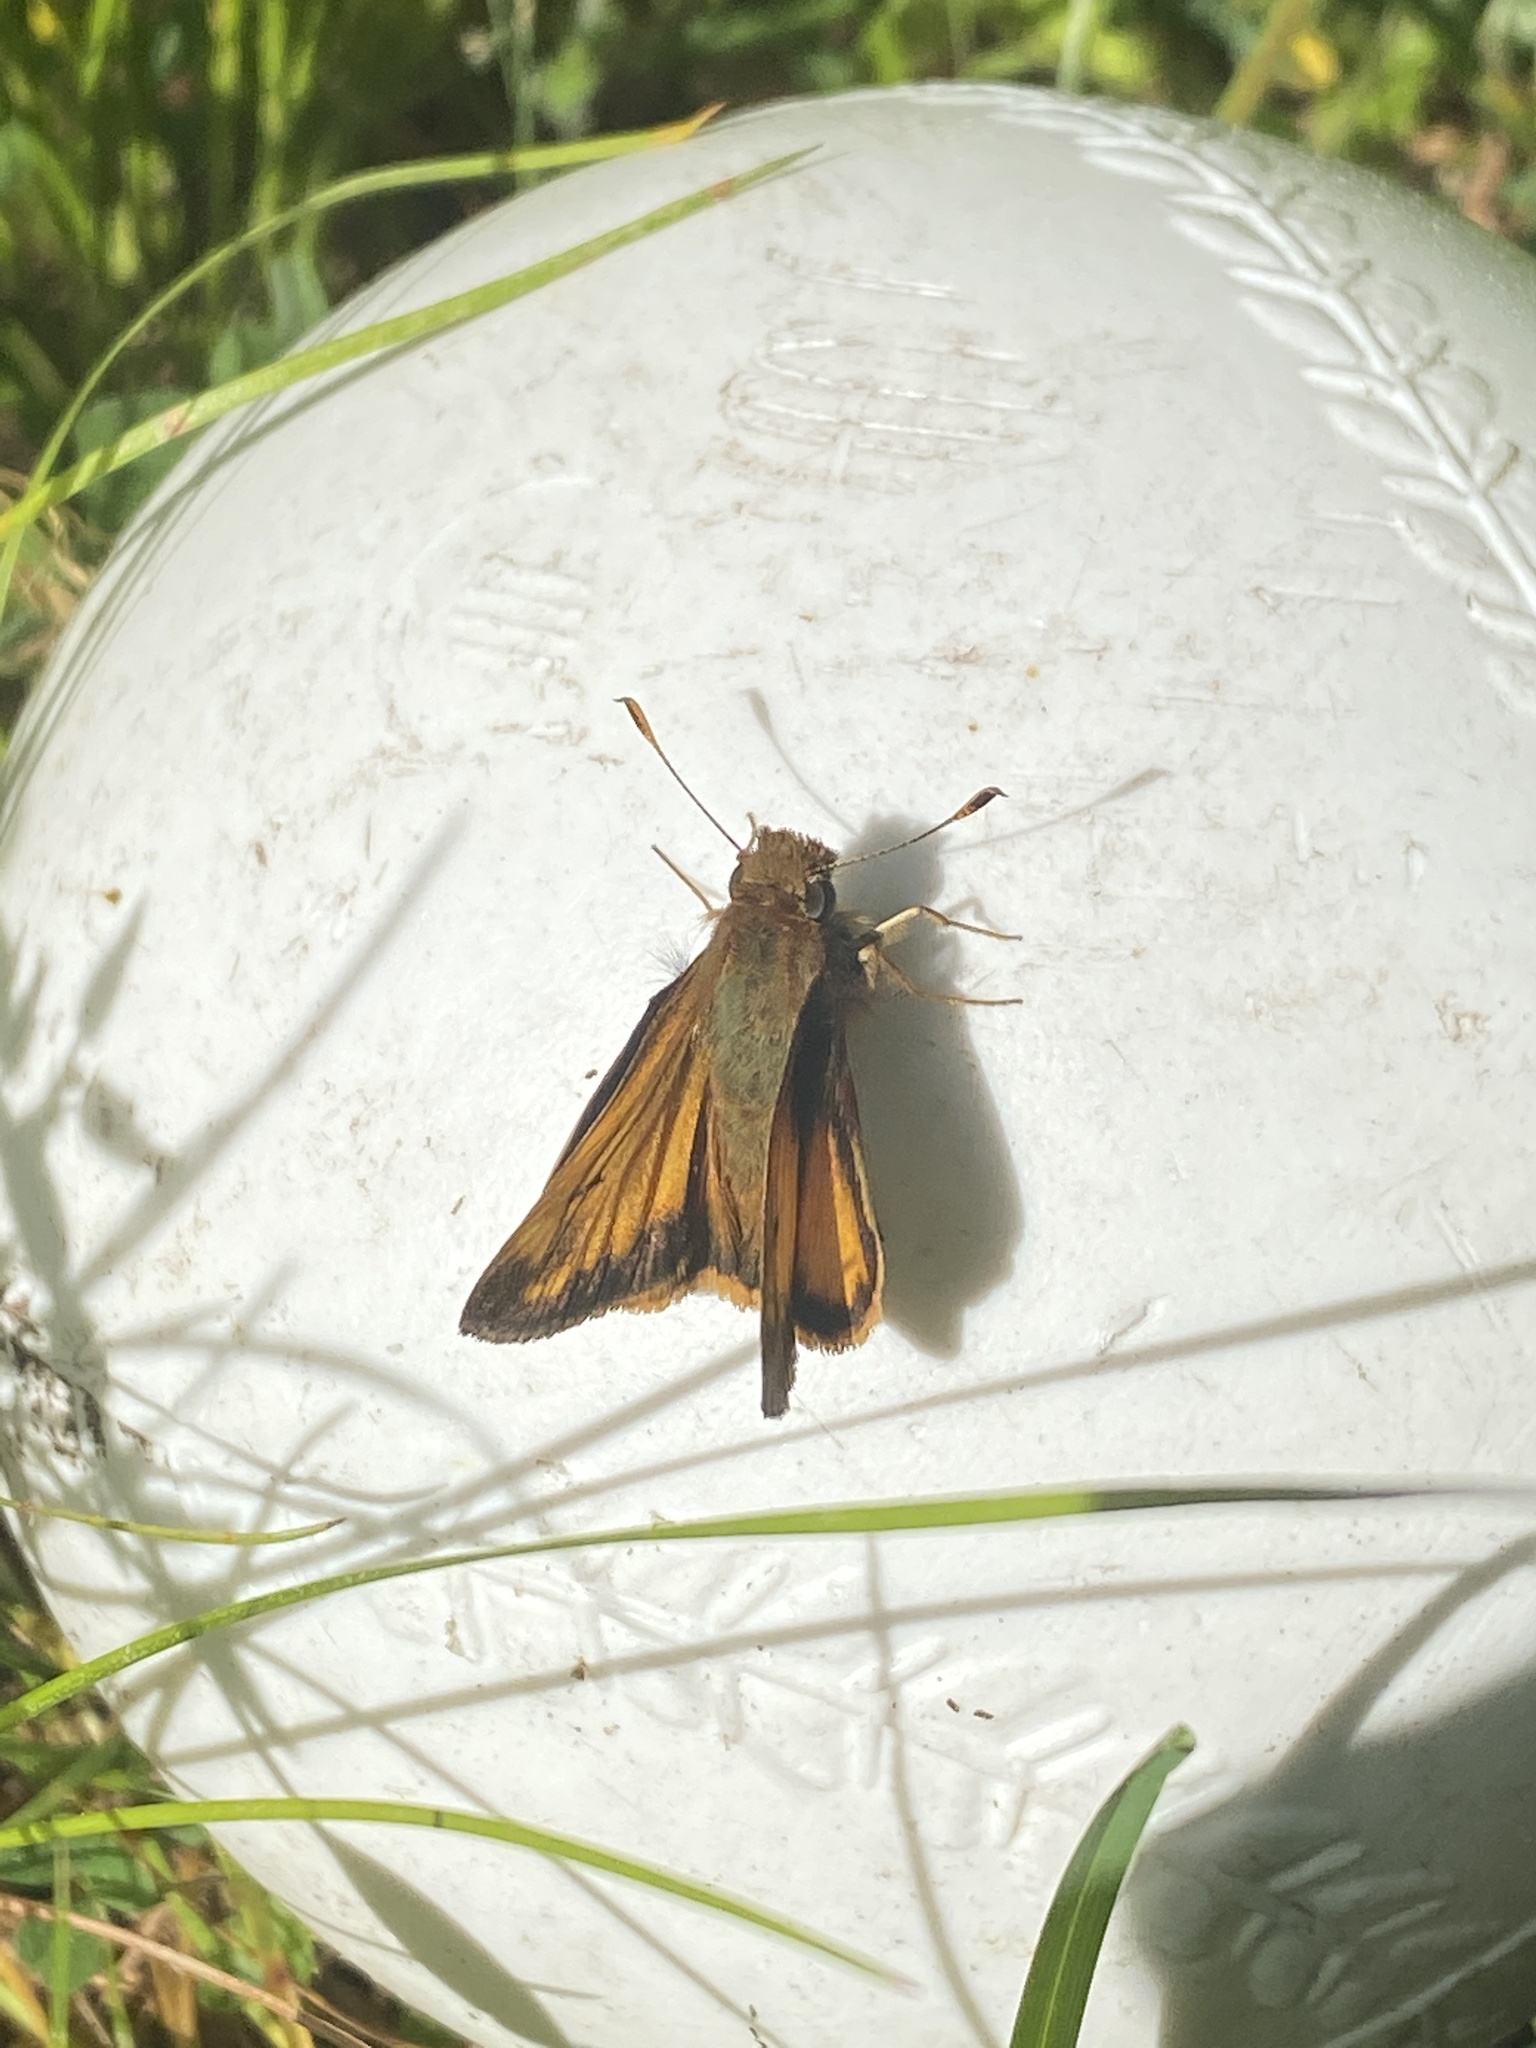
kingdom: Animalia
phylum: Arthropoda
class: Insecta
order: Lepidoptera
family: Hesperiidae
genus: Lon
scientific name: Lon zabulon
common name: Zabulon skipper
